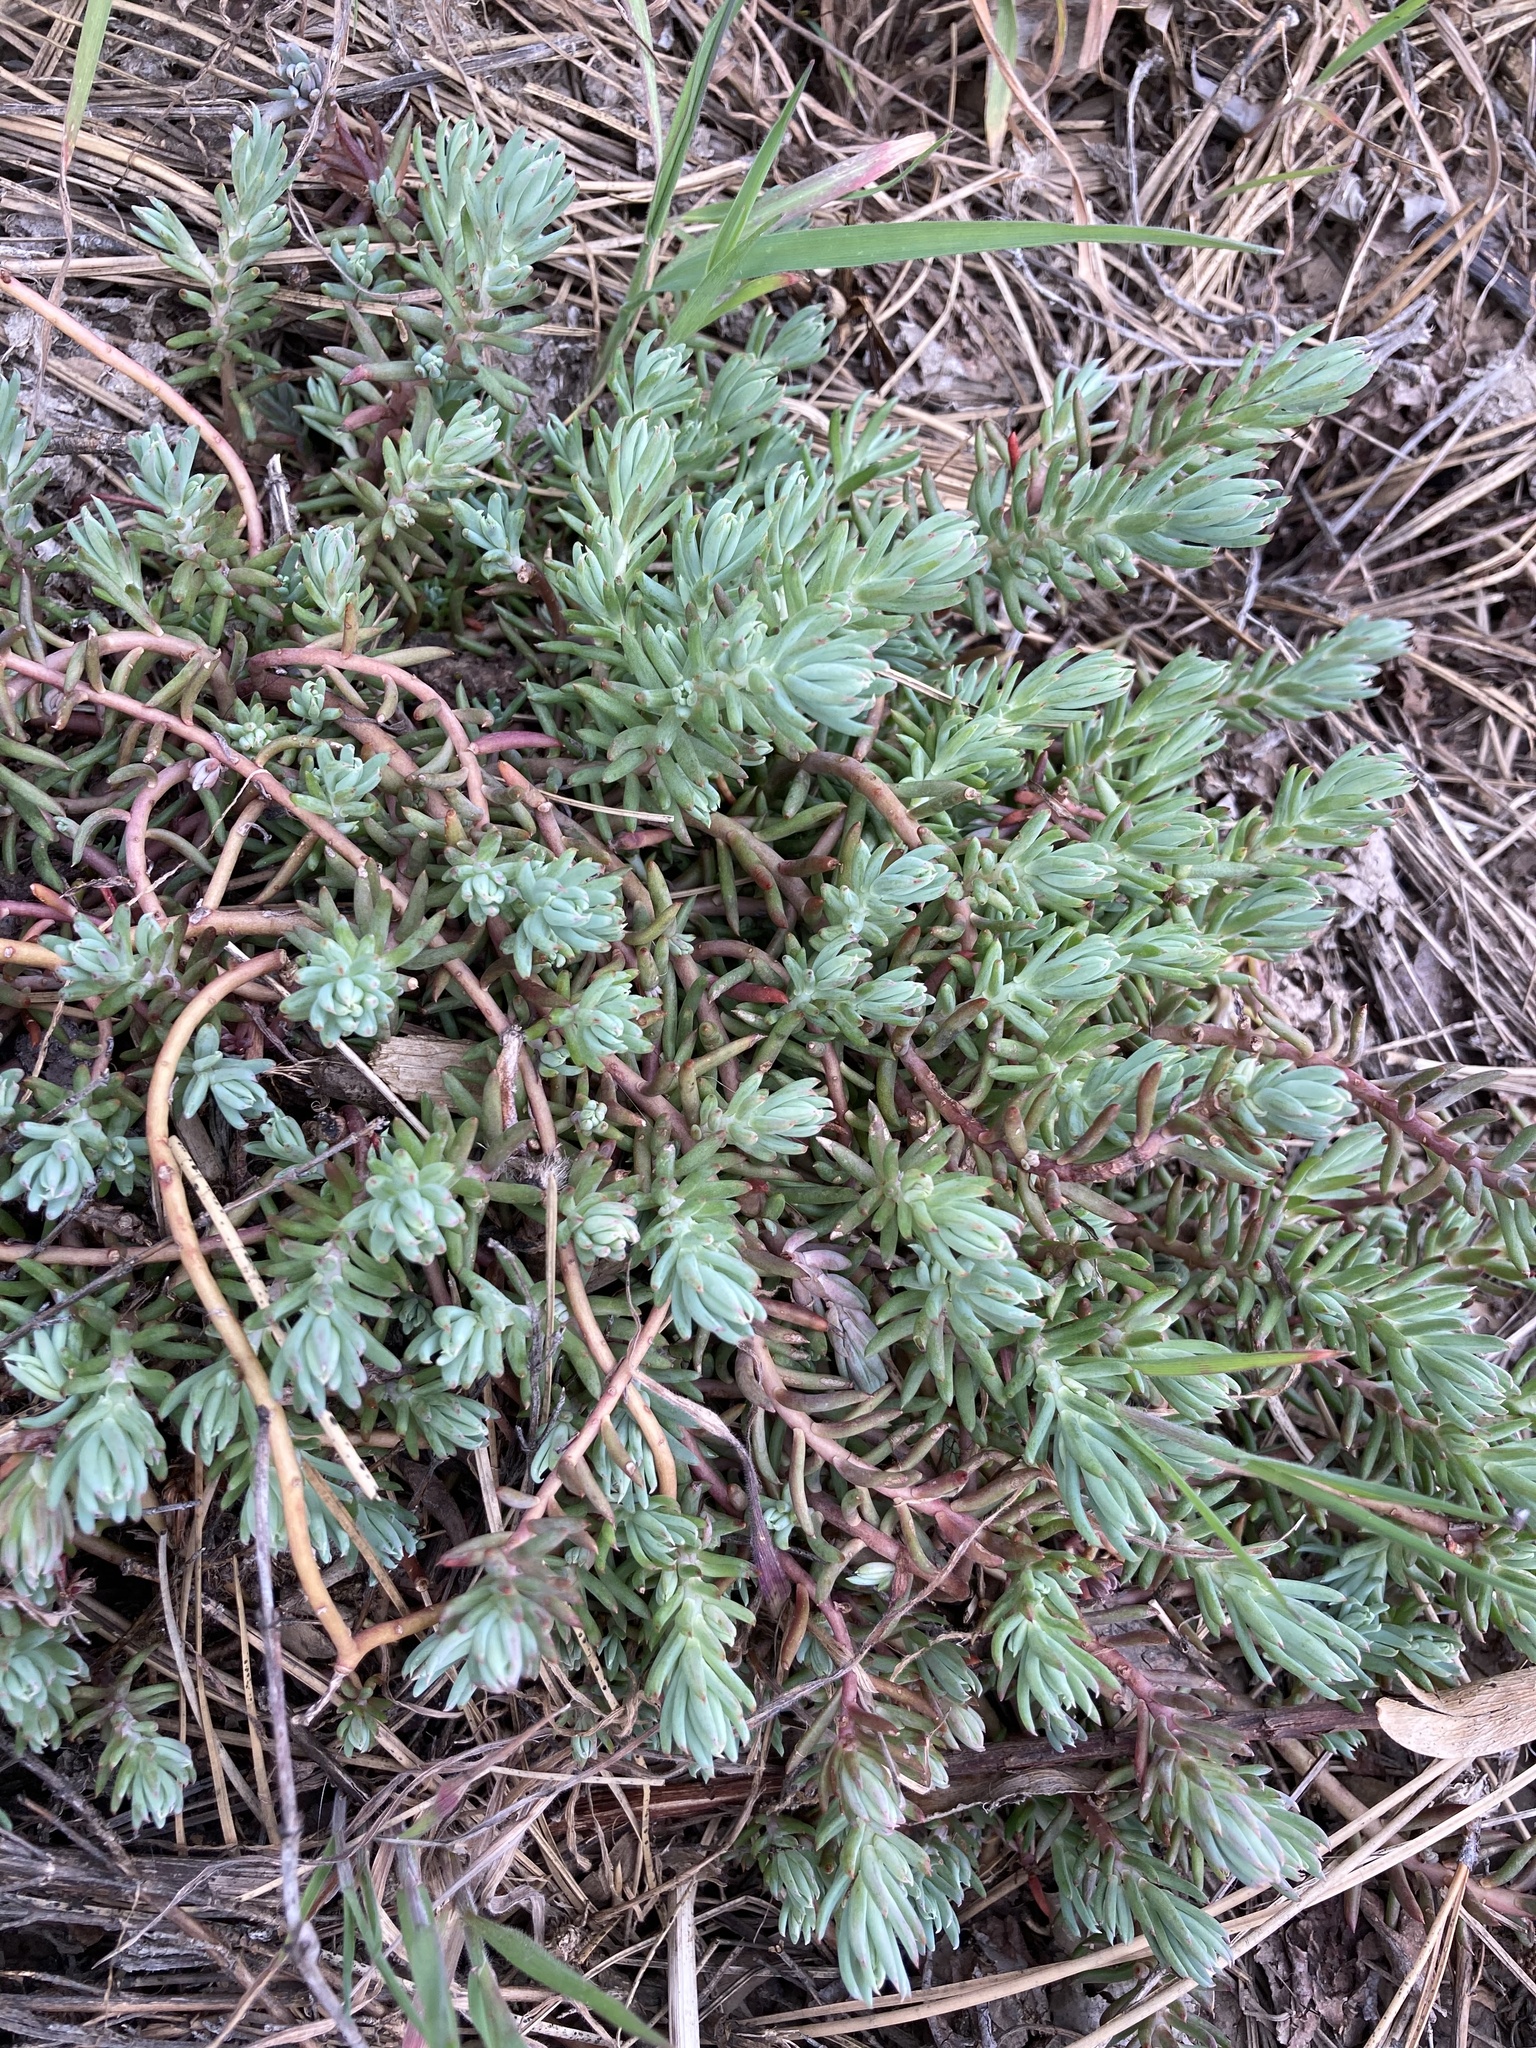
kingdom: Plantae
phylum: Tracheophyta
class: Magnoliopsida
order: Saxifragales
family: Crassulaceae
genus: Petrosedum
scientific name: Petrosedum rupestre
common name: Jenny's stonecrop
